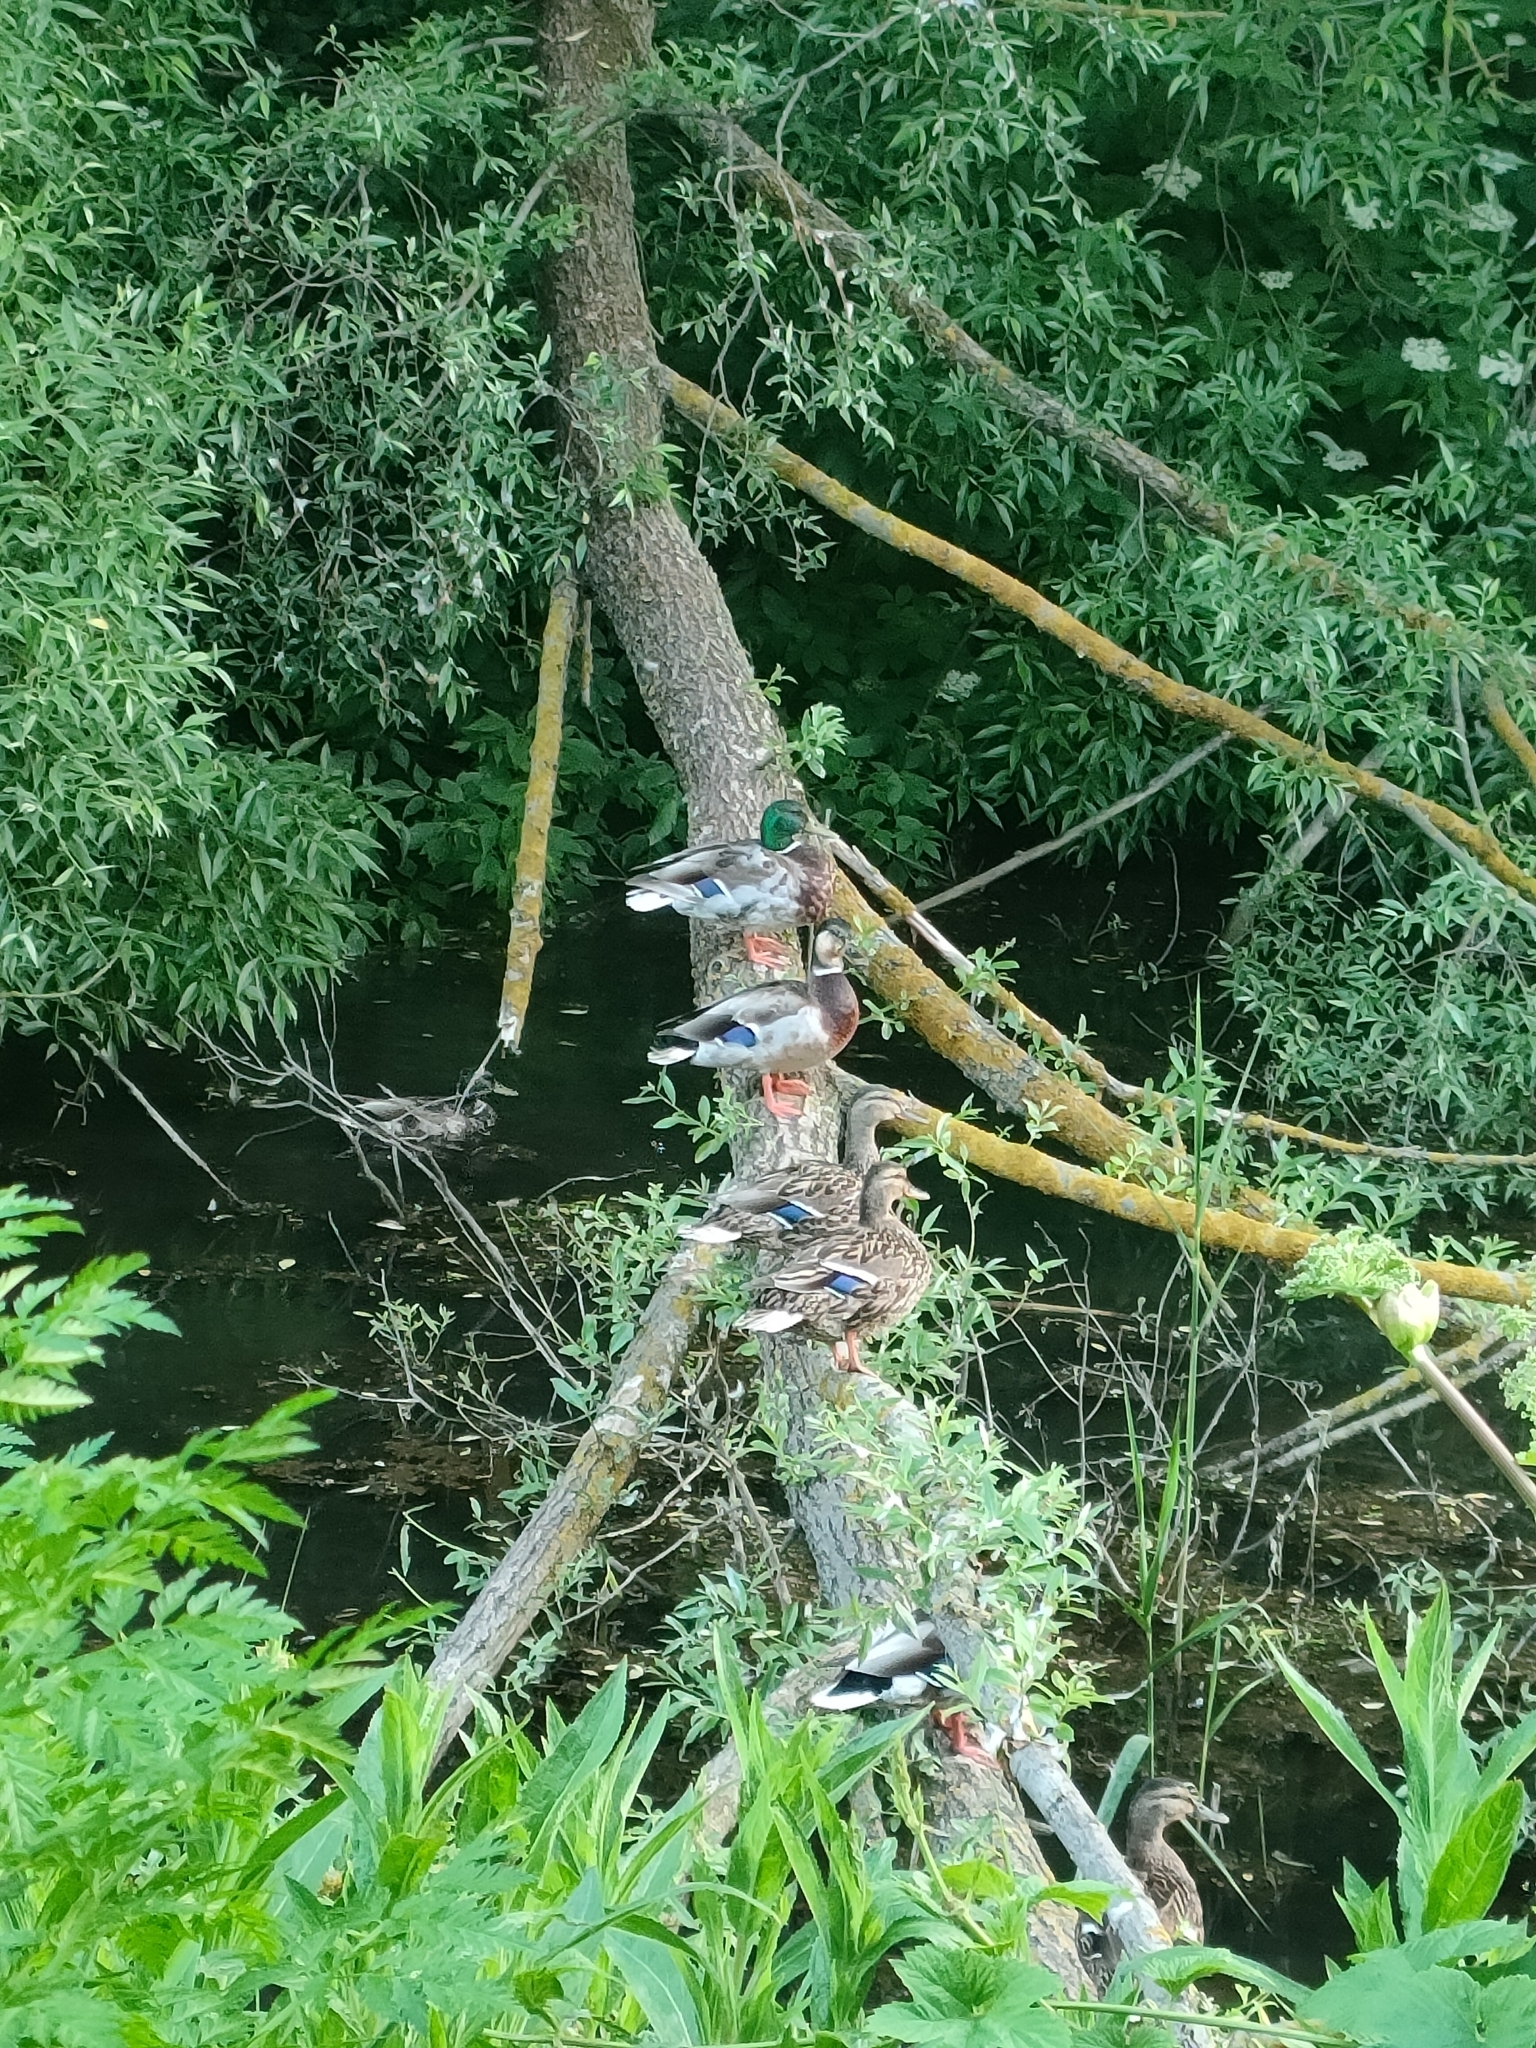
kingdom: Animalia
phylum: Chordata
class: Aves
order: Anseriformes
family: Anatidae
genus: Anas
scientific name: Anas platyrhynchos
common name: Mallard
